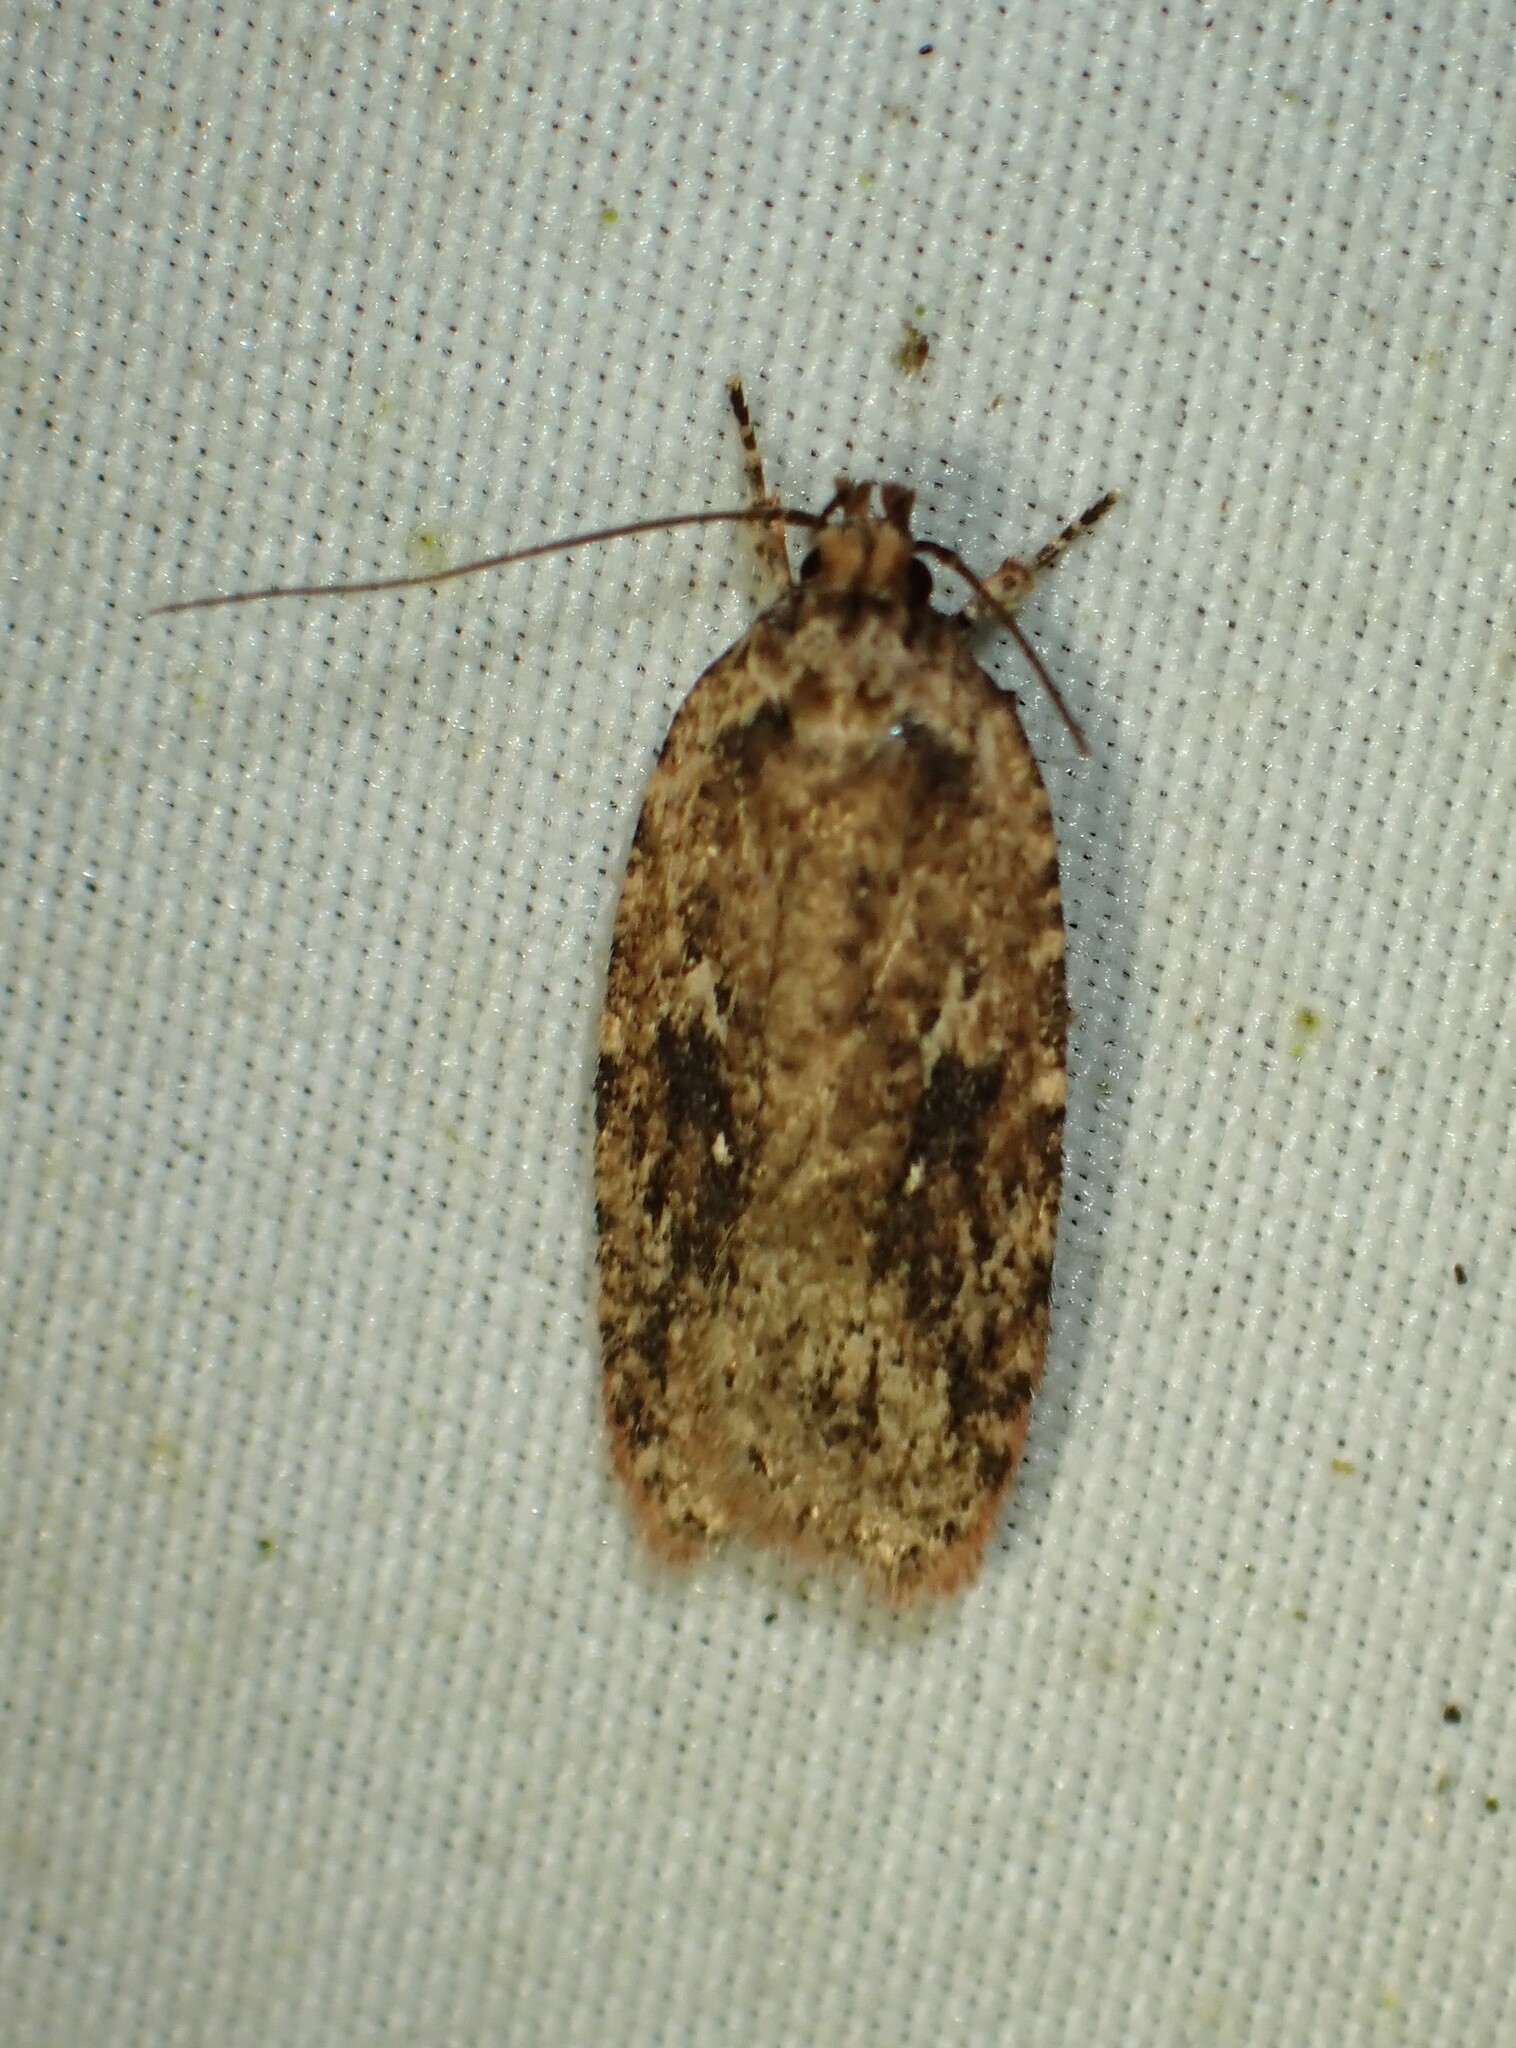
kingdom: Animalia
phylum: Arthropoda
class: Insecta
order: Lepidoptera
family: Depressariidae
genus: Agonopterix
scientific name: Agonopterix pulvipennella
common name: Goldenrod leafffolder
